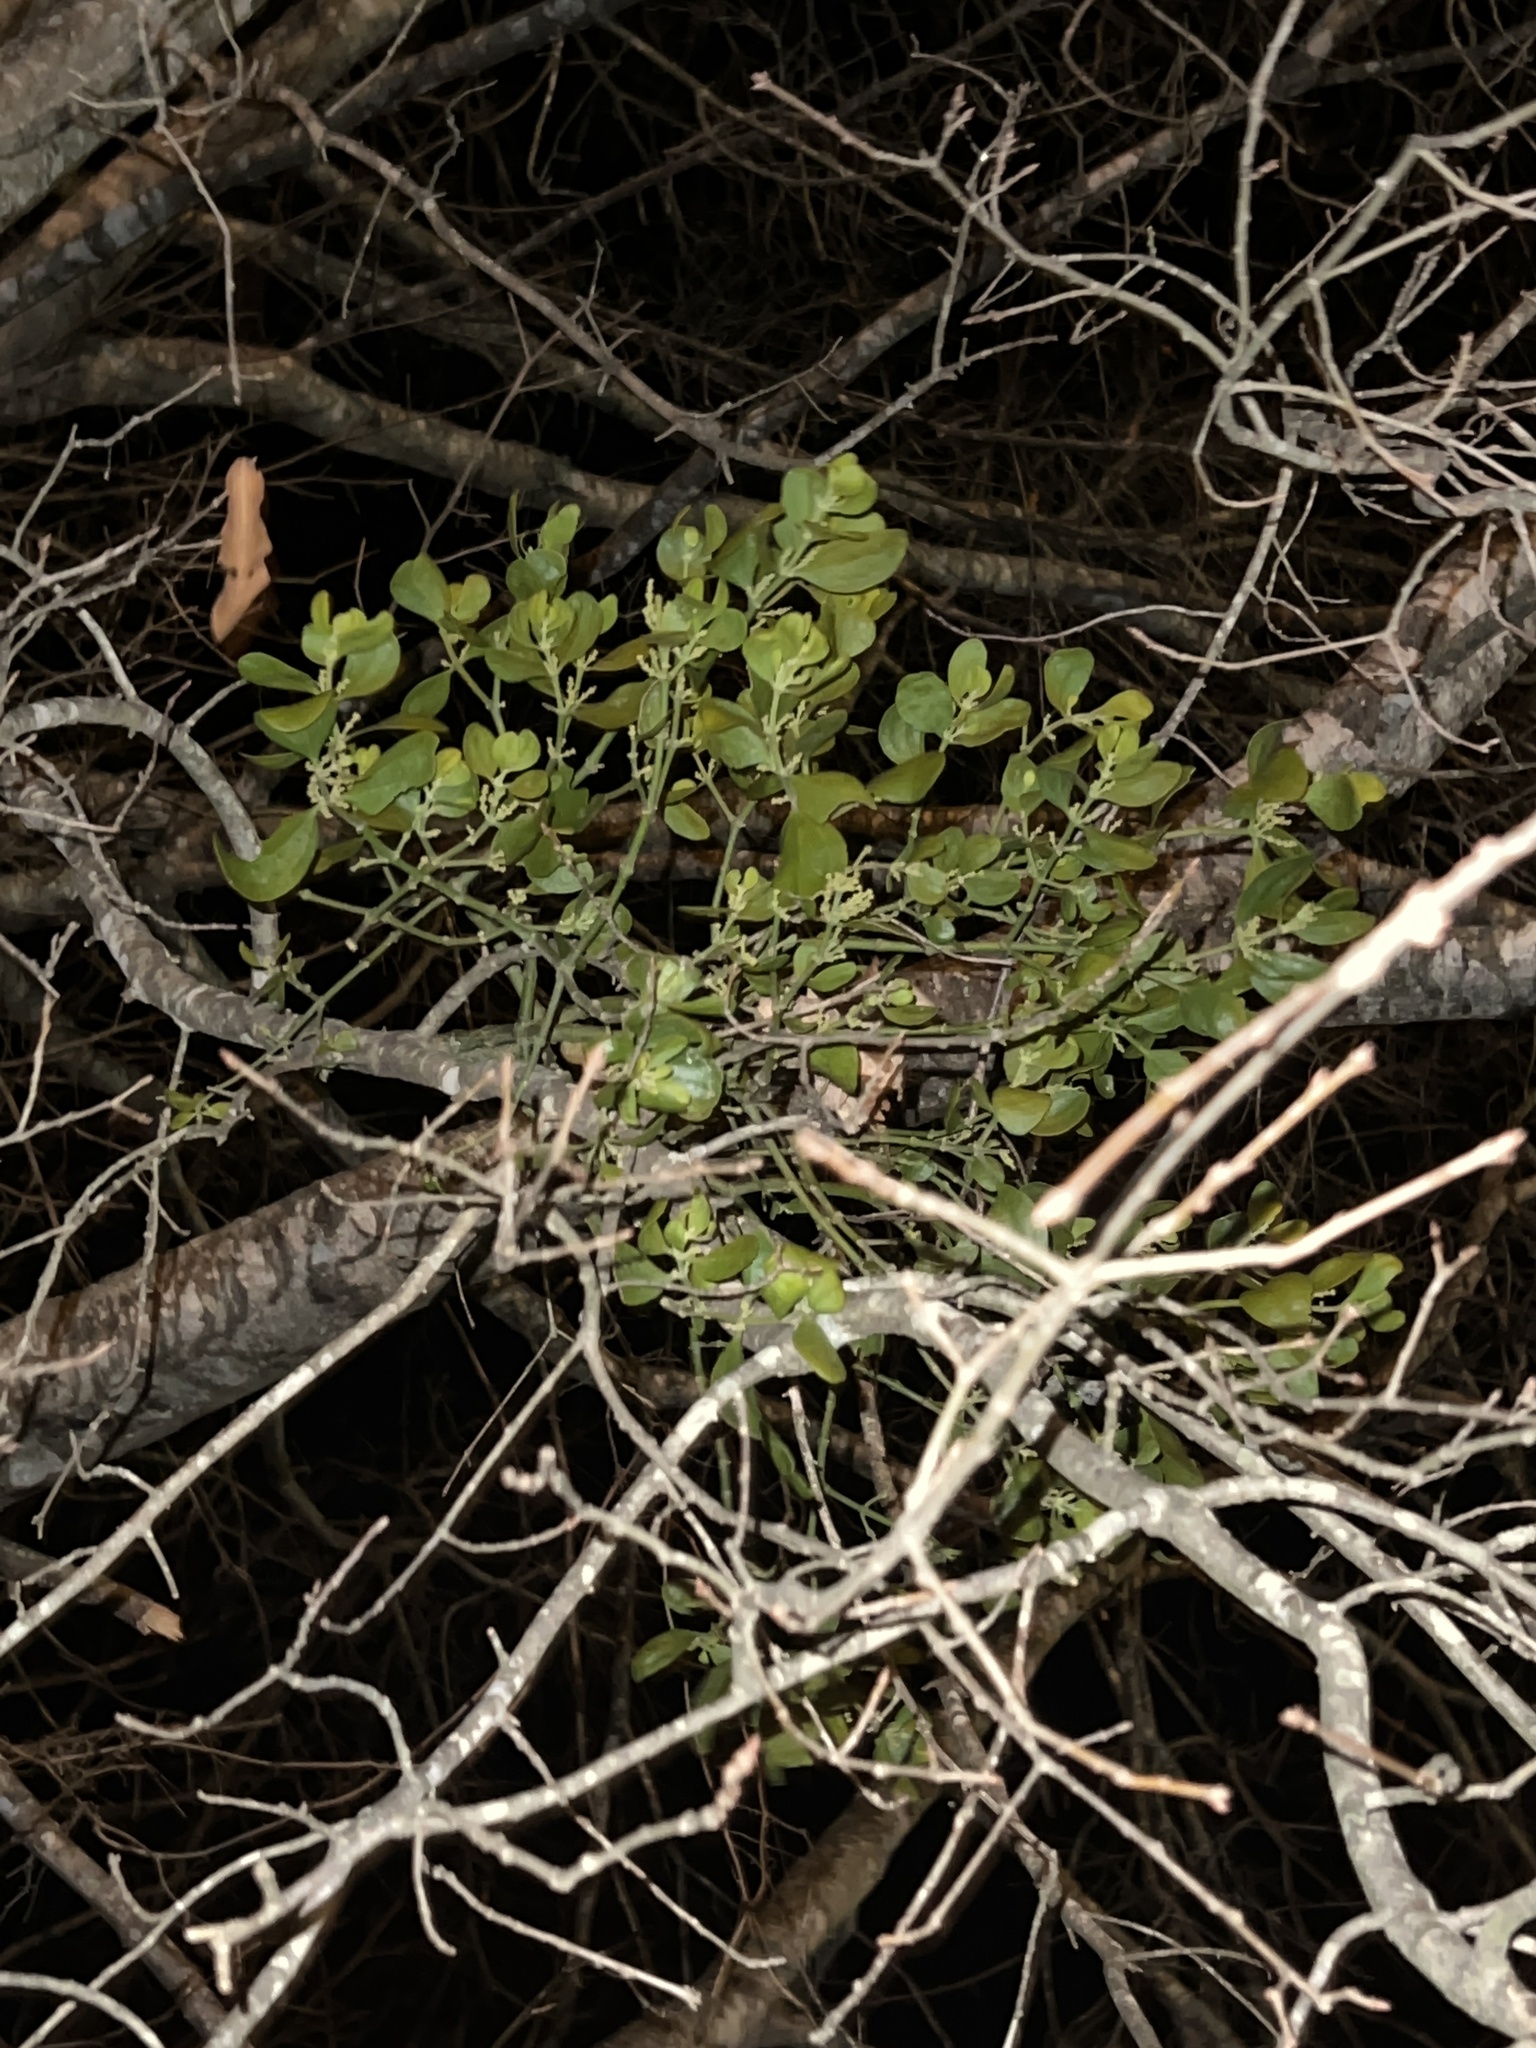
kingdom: Plantae
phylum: Tracheophyta
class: Magnoliopsida
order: Santalales
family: Viscaceae
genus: Phoradendron
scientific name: Phoradendron leucarpum
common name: Pacific mistletoe
